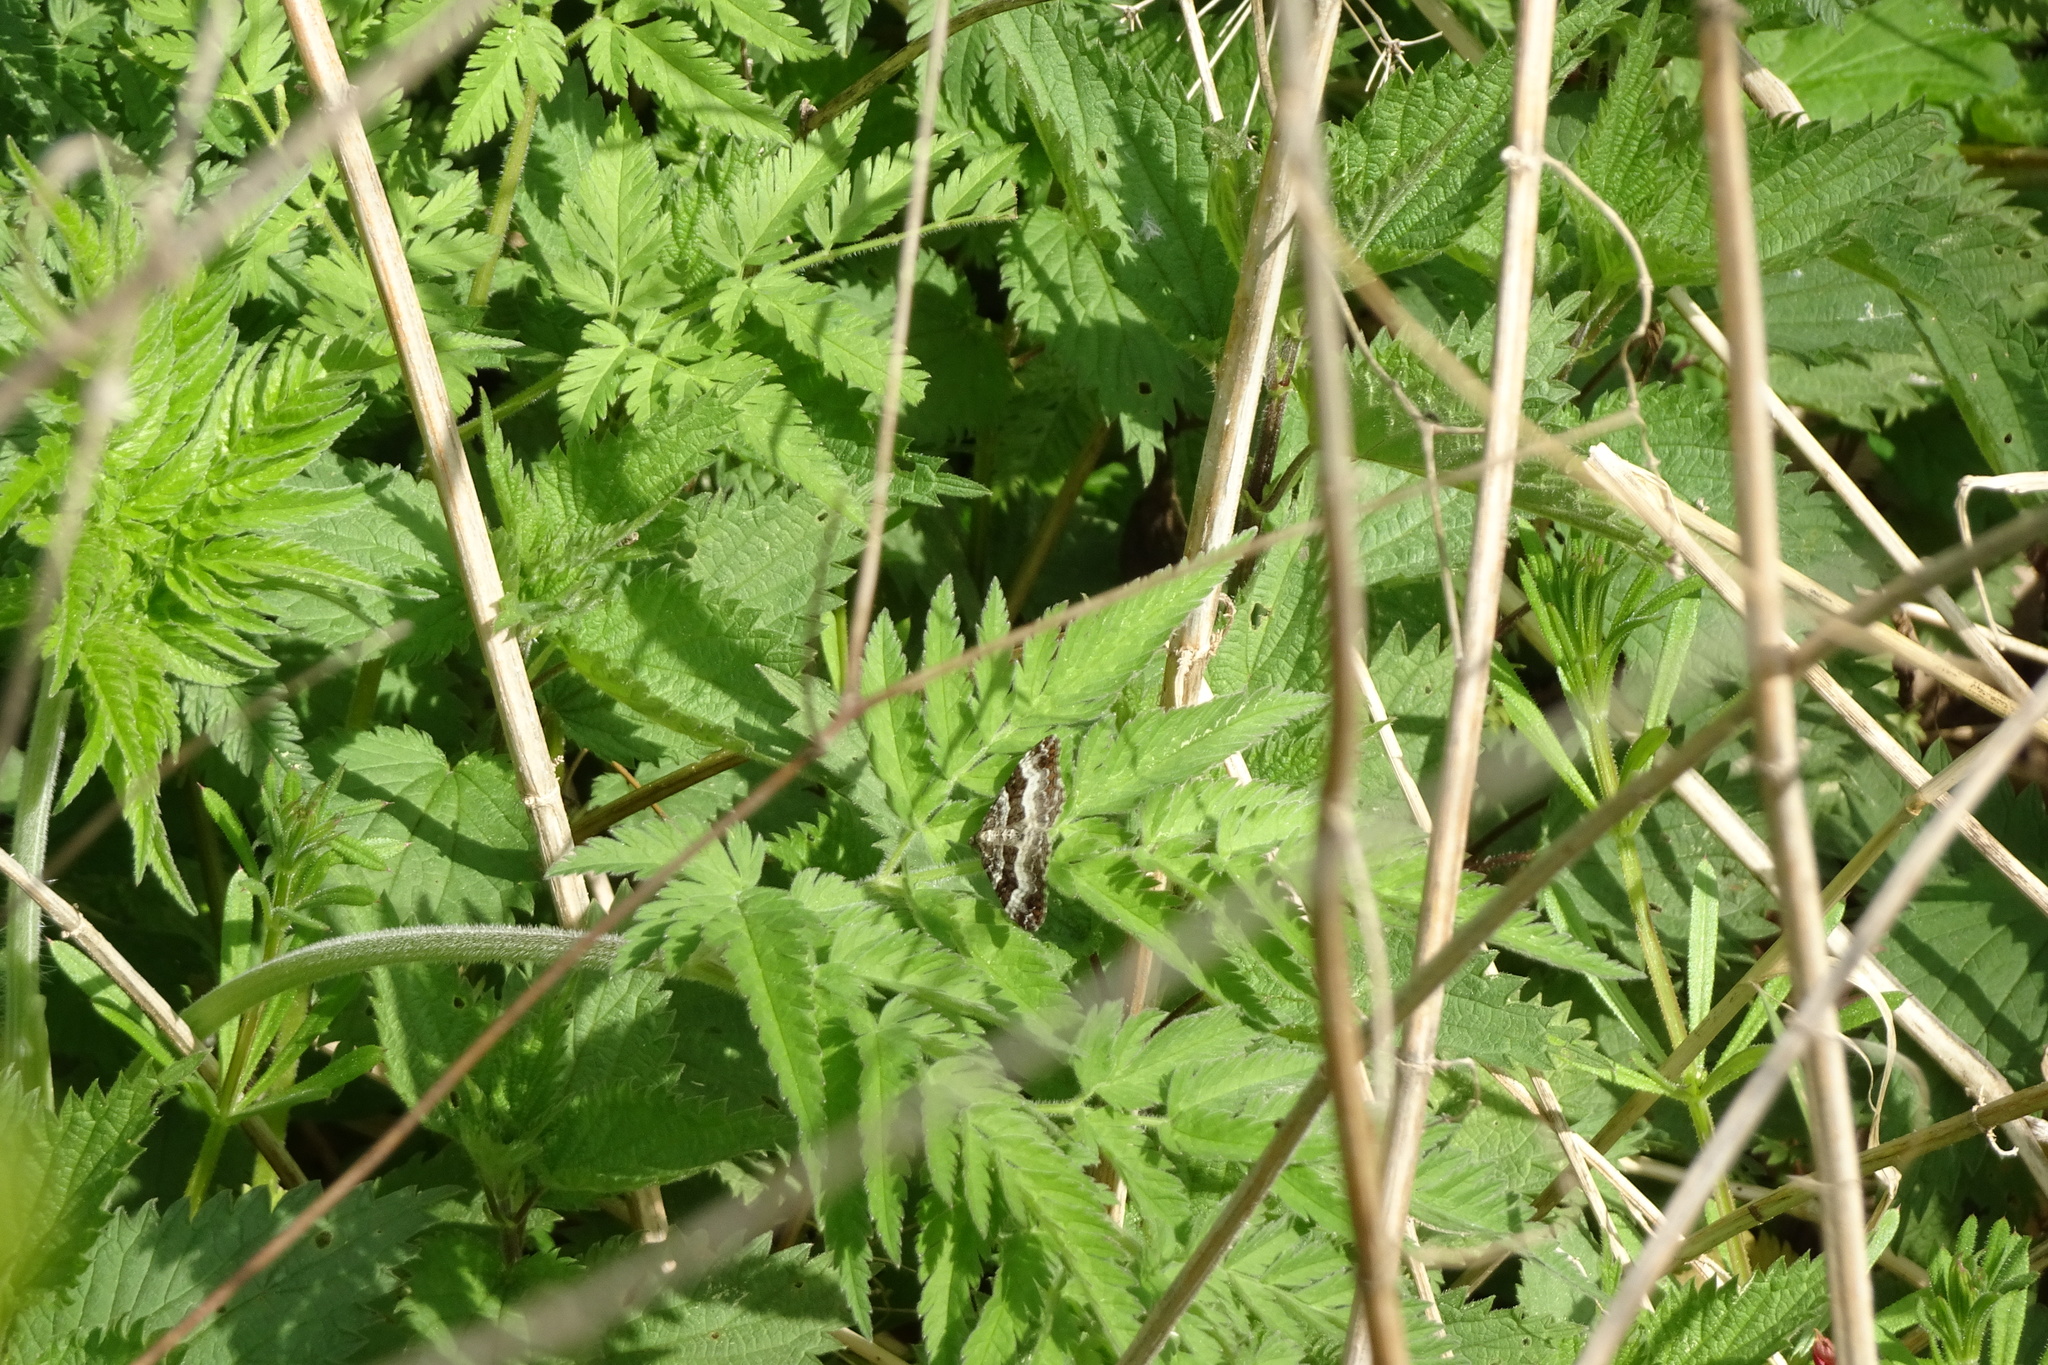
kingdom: Animalia
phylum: Arthropoda
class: Insecta
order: Lepidoptera
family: Geometridae
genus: Epirrhoe
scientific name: Epirrhoe alternata
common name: Common carpet
